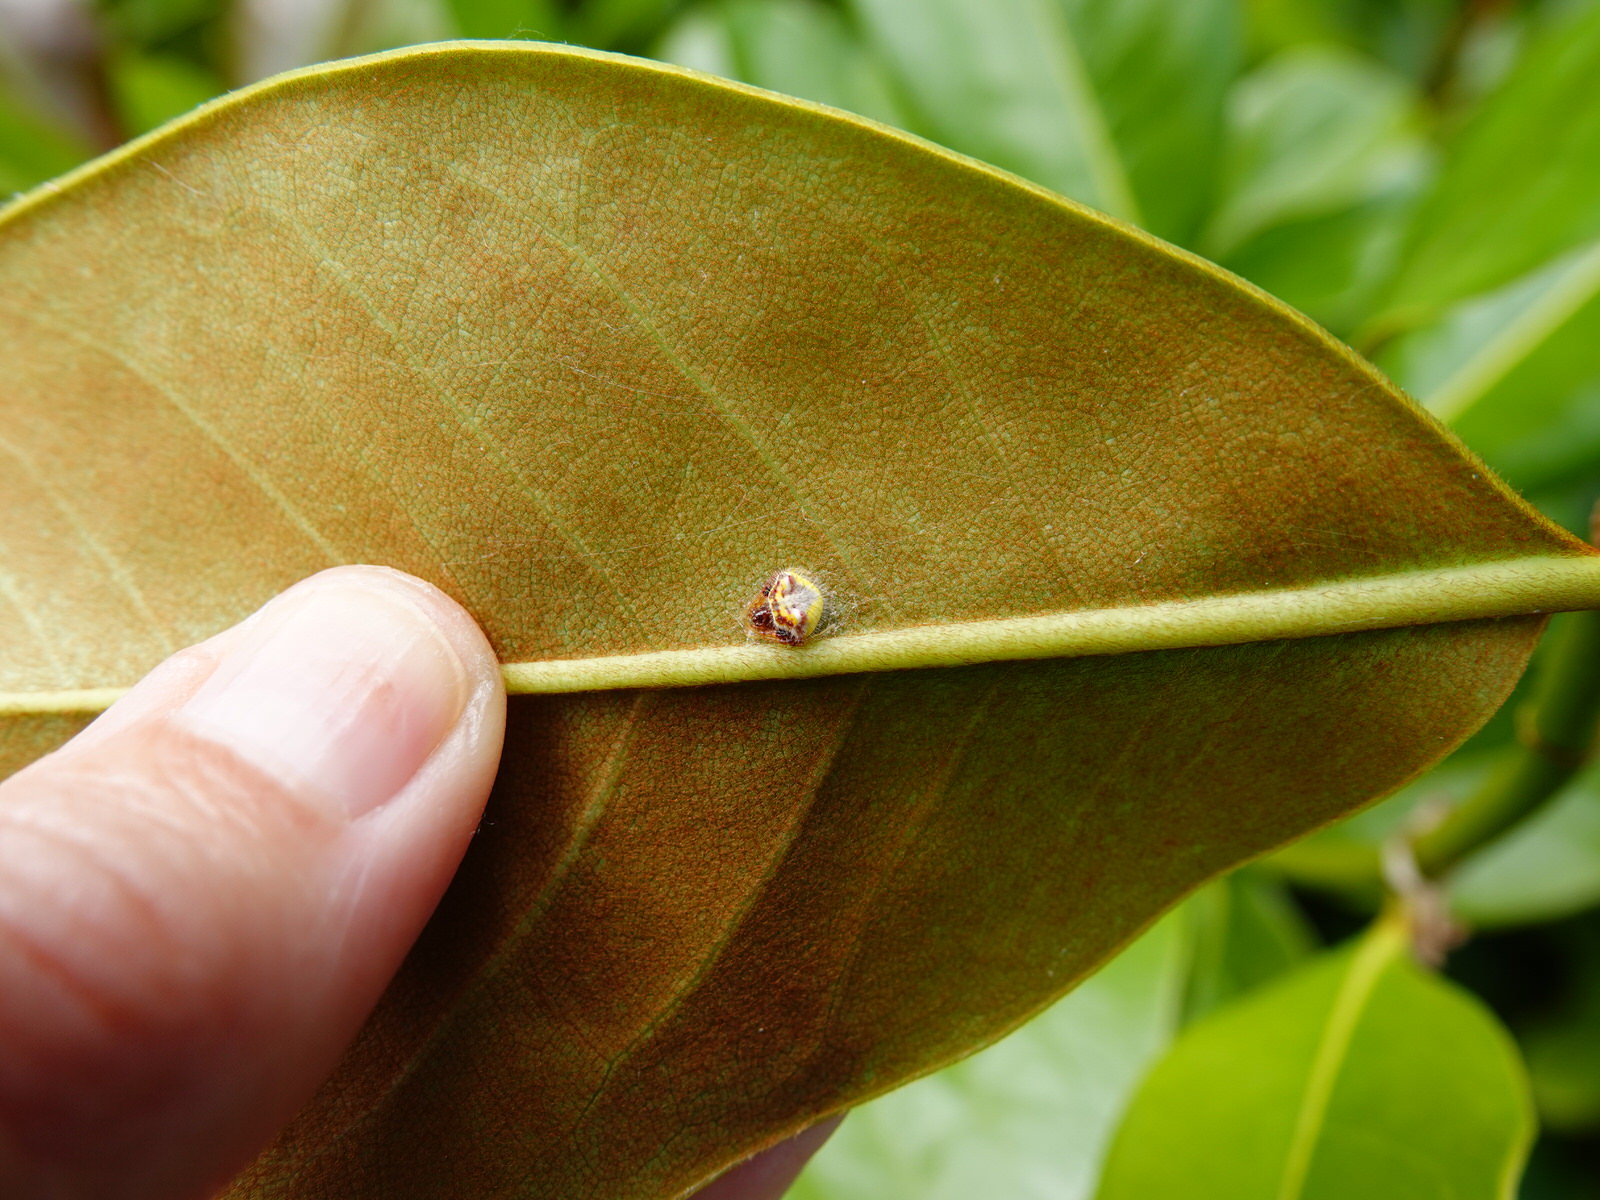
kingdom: Animalia
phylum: Arthropoda
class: Arachnida
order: Araneae
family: Araneidae
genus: Poecilopachys
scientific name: Poecilopachys australasia
